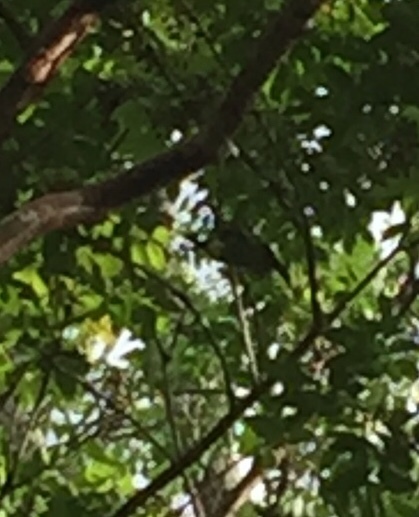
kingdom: Animalia
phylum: Chordata
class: Aves
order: Piciformes
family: Ramphastidae
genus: Aulacorhynchus
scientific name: Aulacorhynchus prasinus
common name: Emerald toucanet
